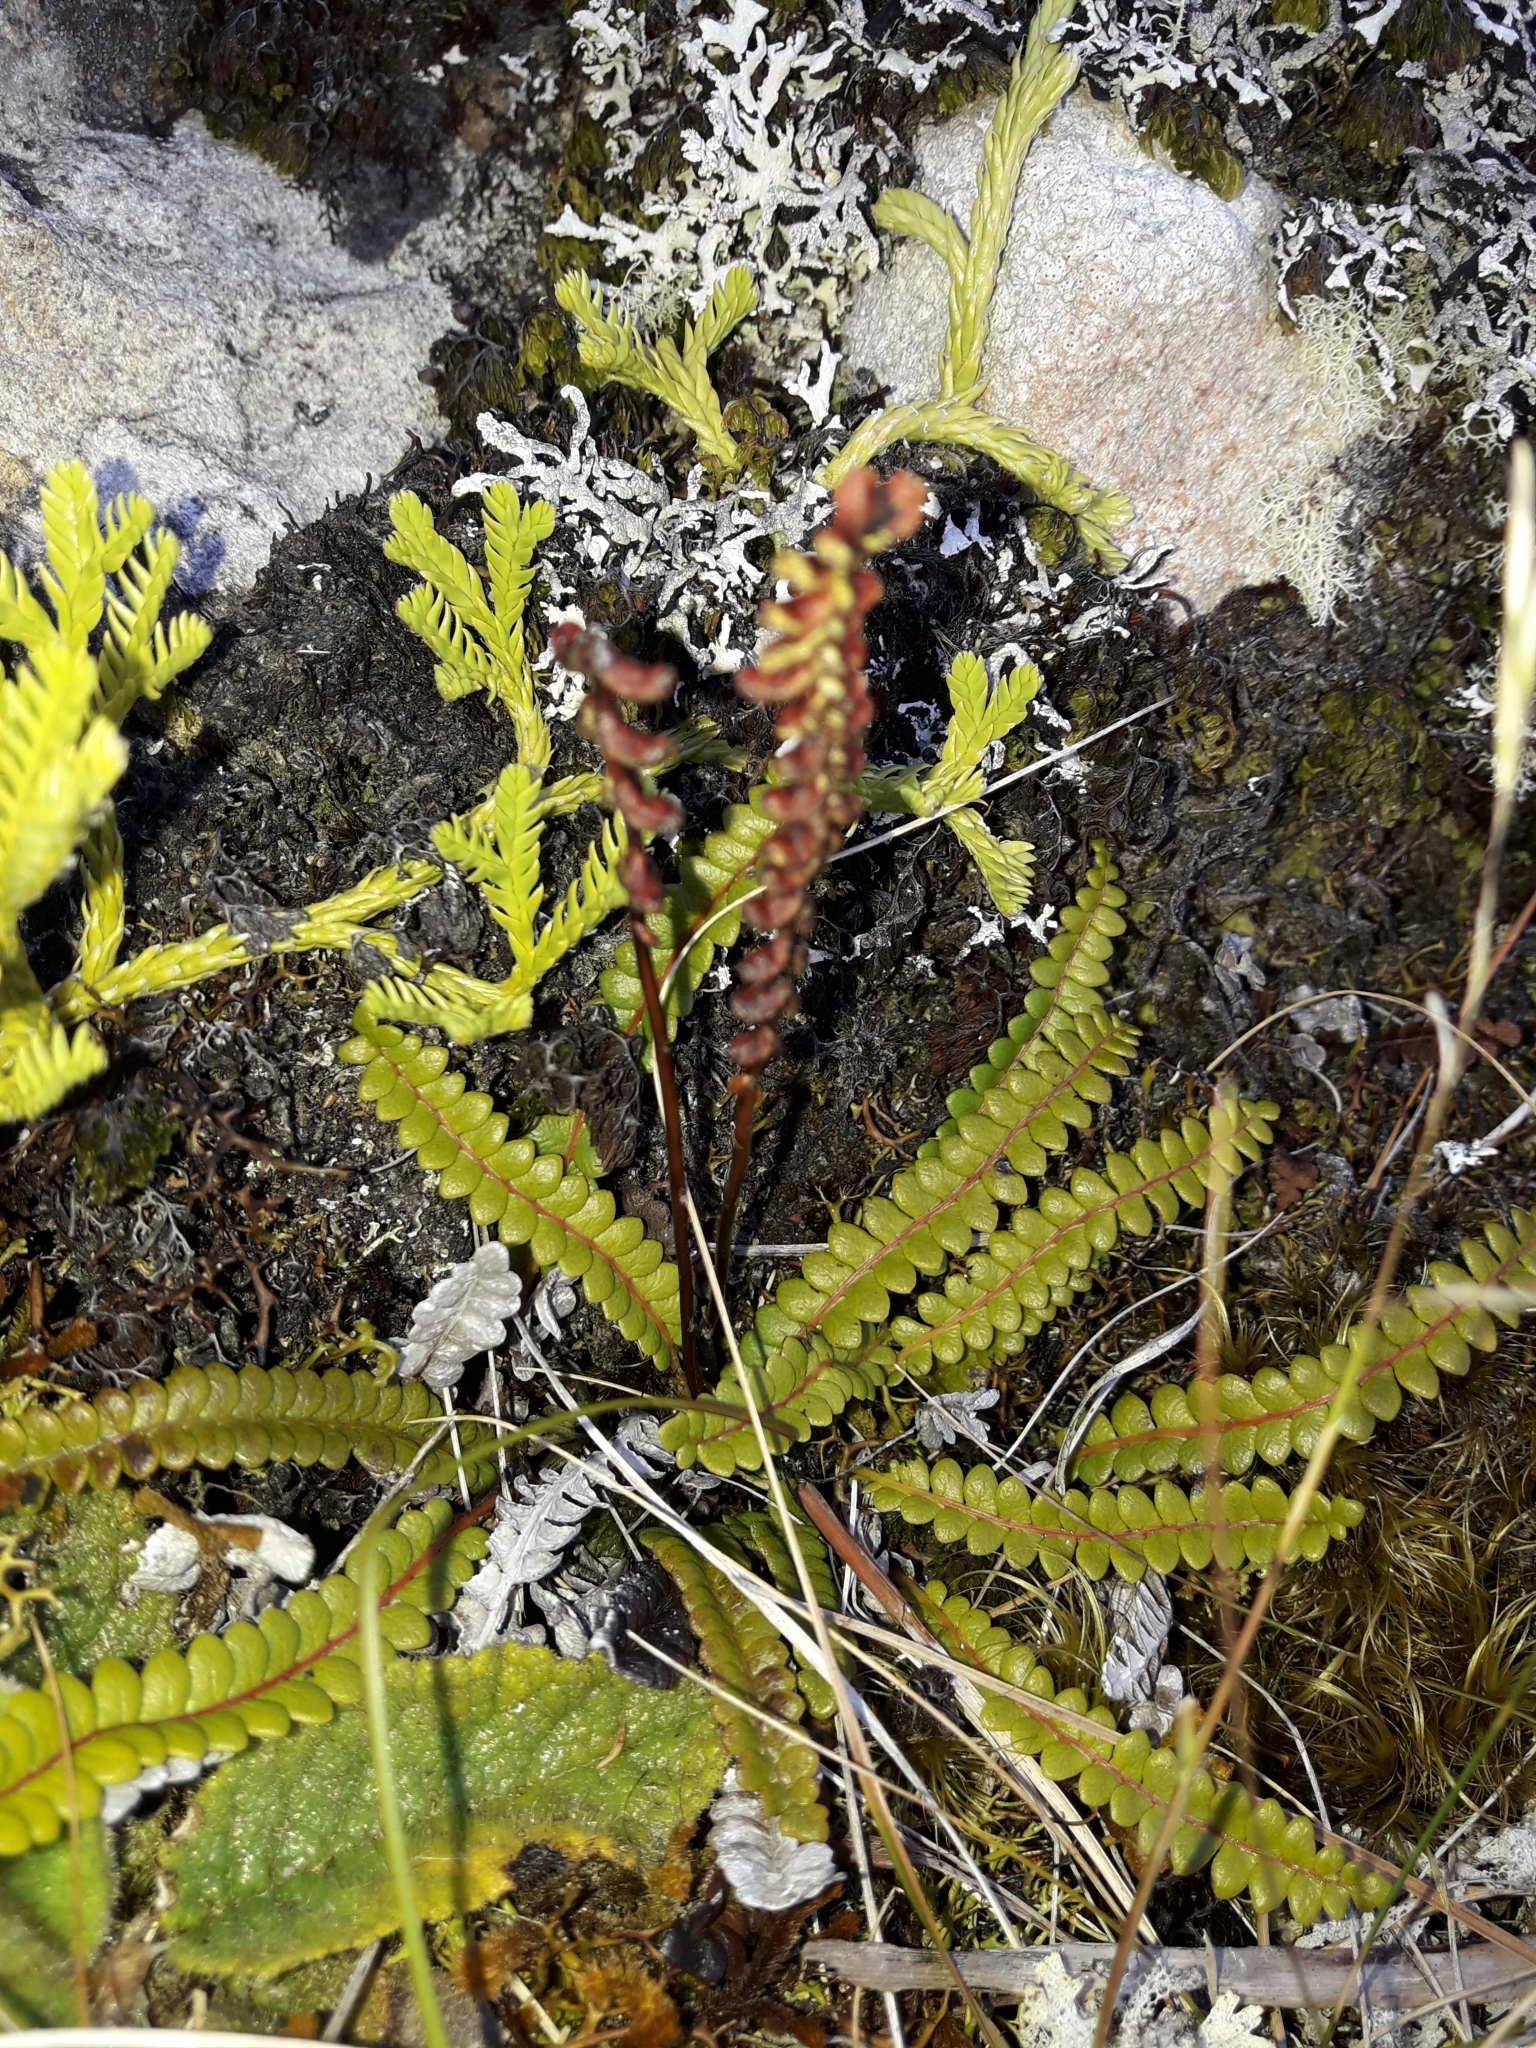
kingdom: Plantae
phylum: Tracheophyta
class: Polypodiopsida
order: Polypodiales
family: Blechnaceae
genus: Austroblechnum
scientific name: Austroblechnum penna-marina
